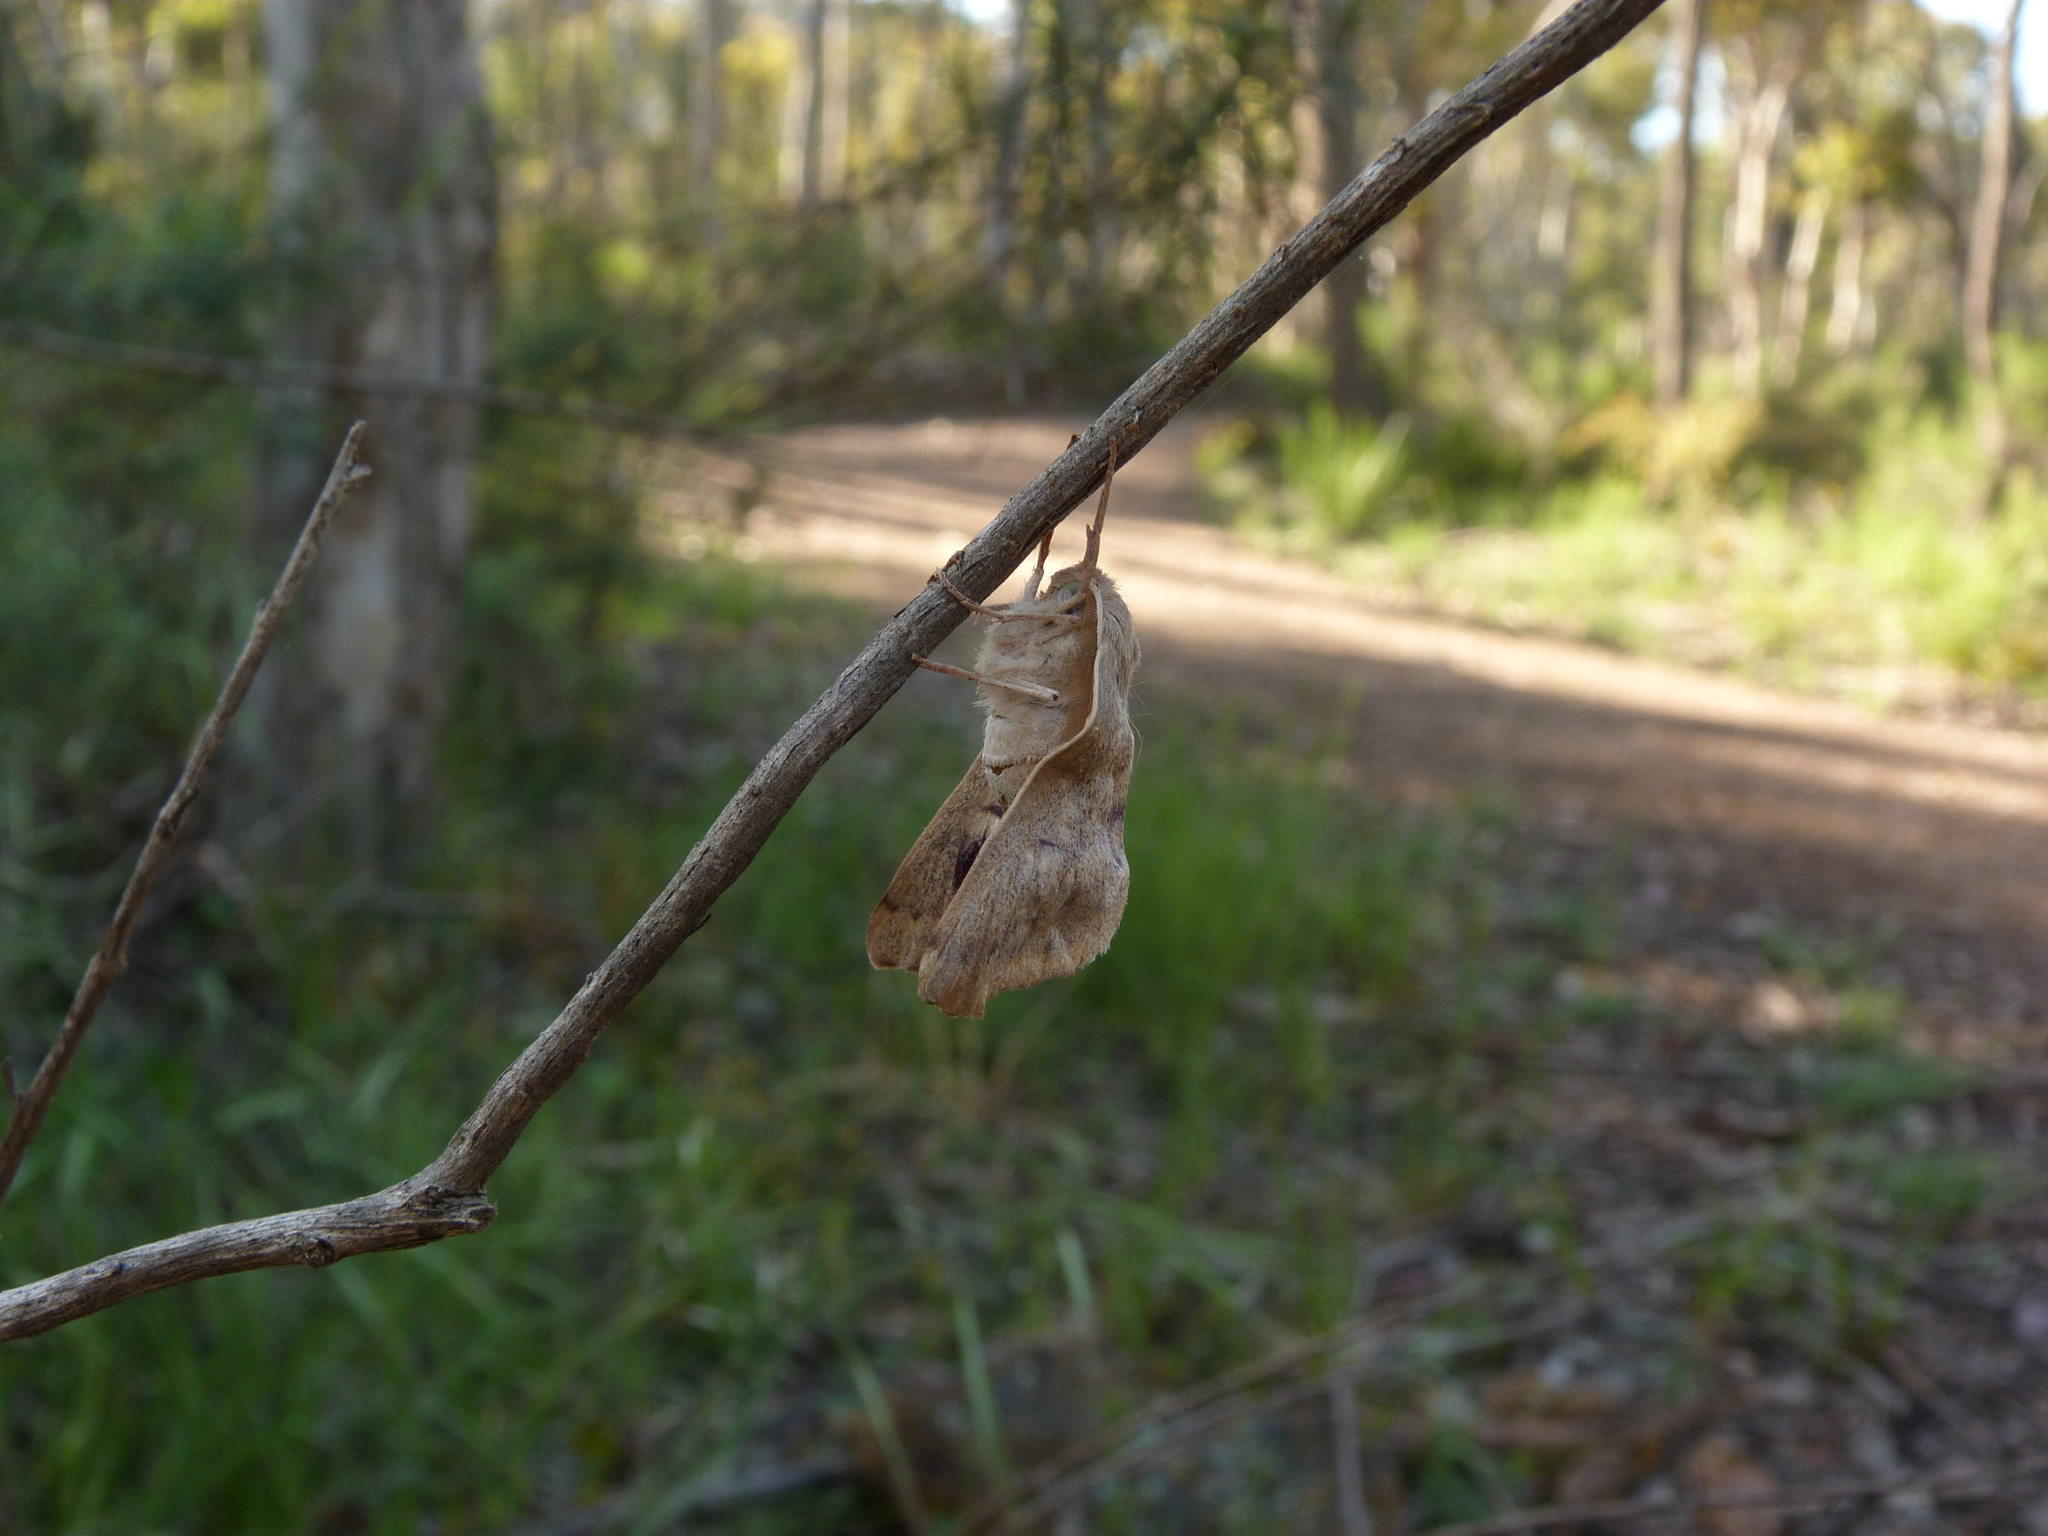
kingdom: Animalia
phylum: Arthropoda
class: Insecta
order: Lepidoptera
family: Geometridae
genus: Arhodia
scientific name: Arhodia lasiocamparia
